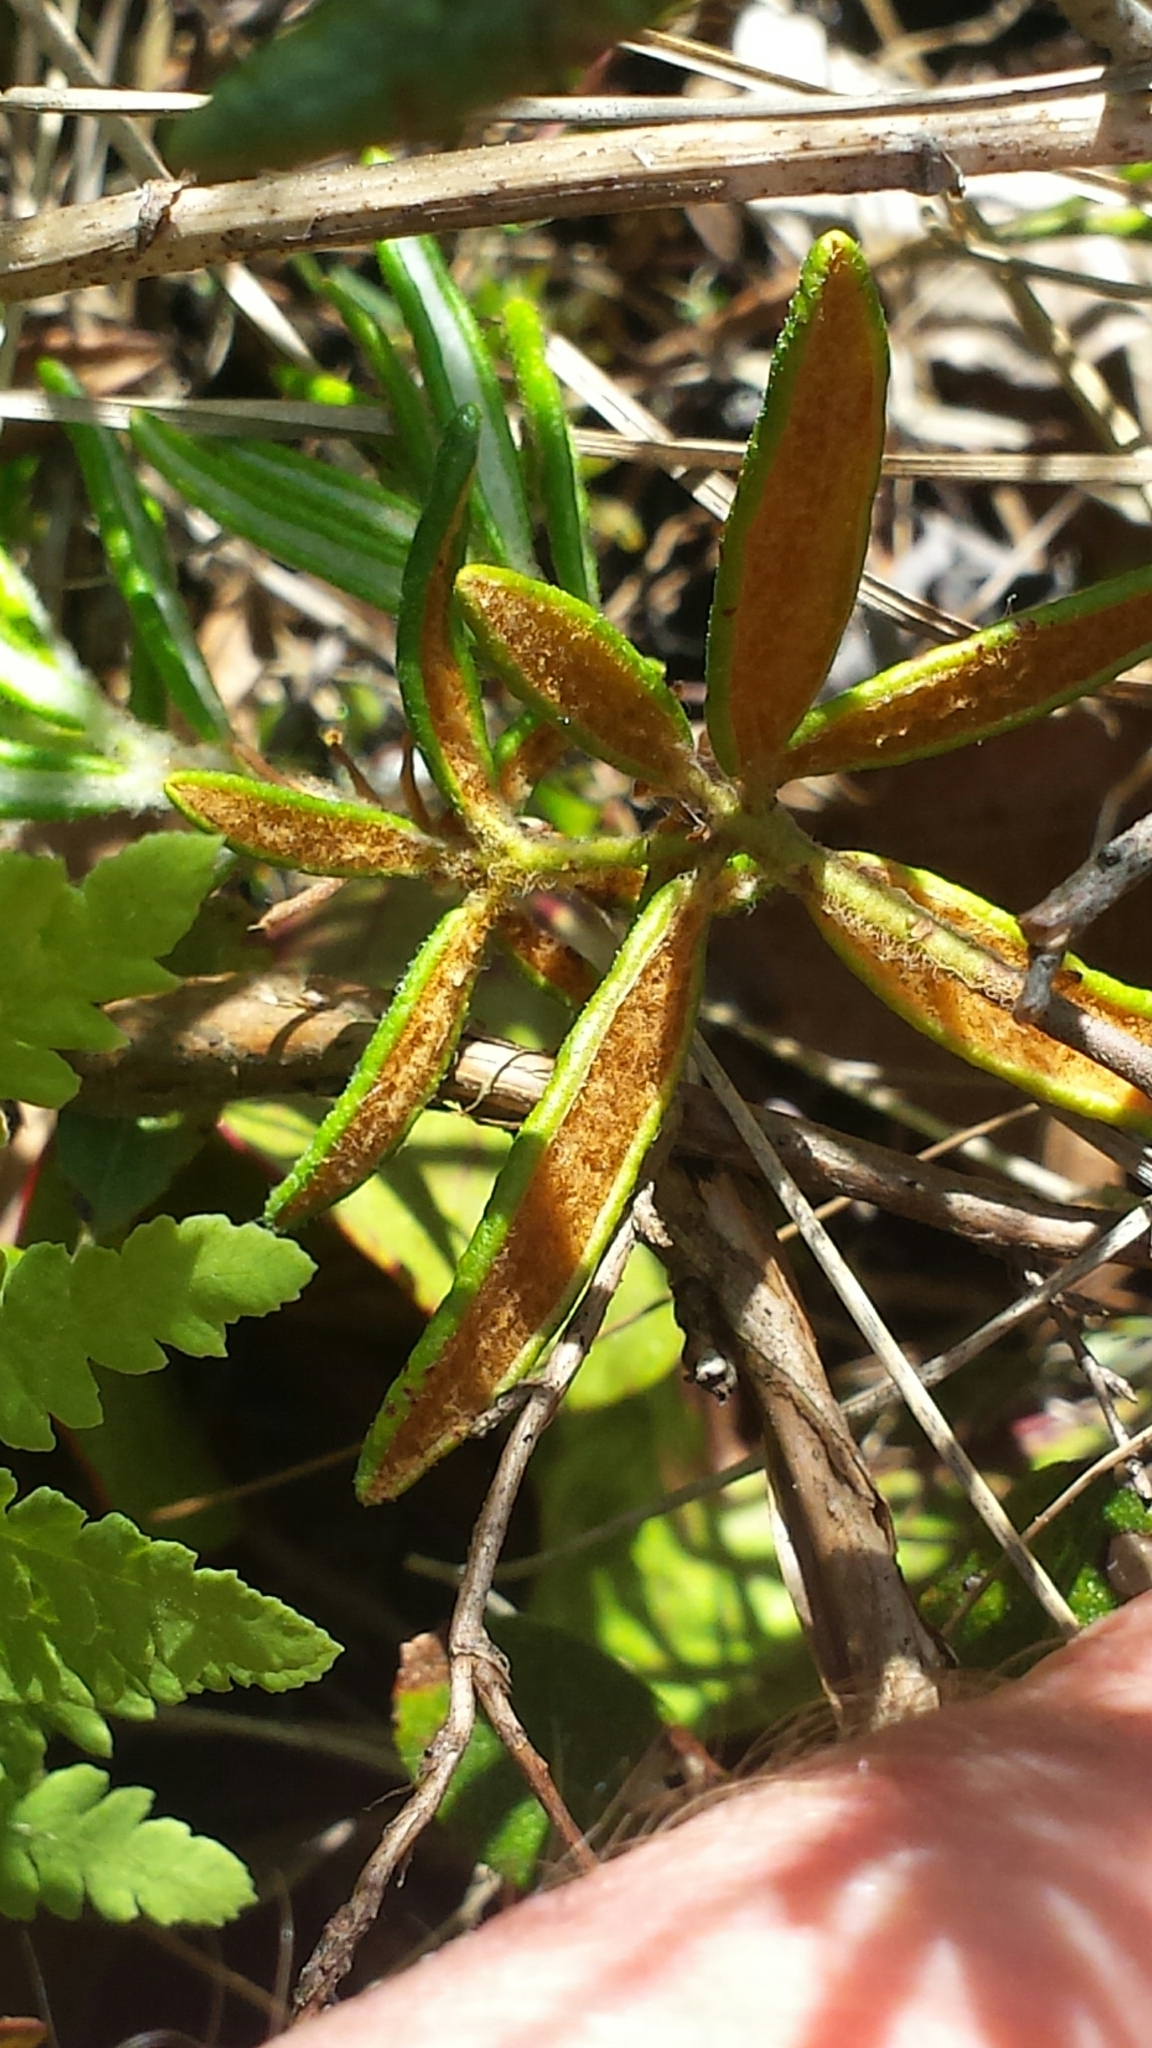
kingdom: Plantae
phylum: Tracheophyta
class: Magnoliopsida
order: Ericales
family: Ericaceae
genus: Rhododendron
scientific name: Rhododendron groenlandicum
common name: Bog labrador tea
